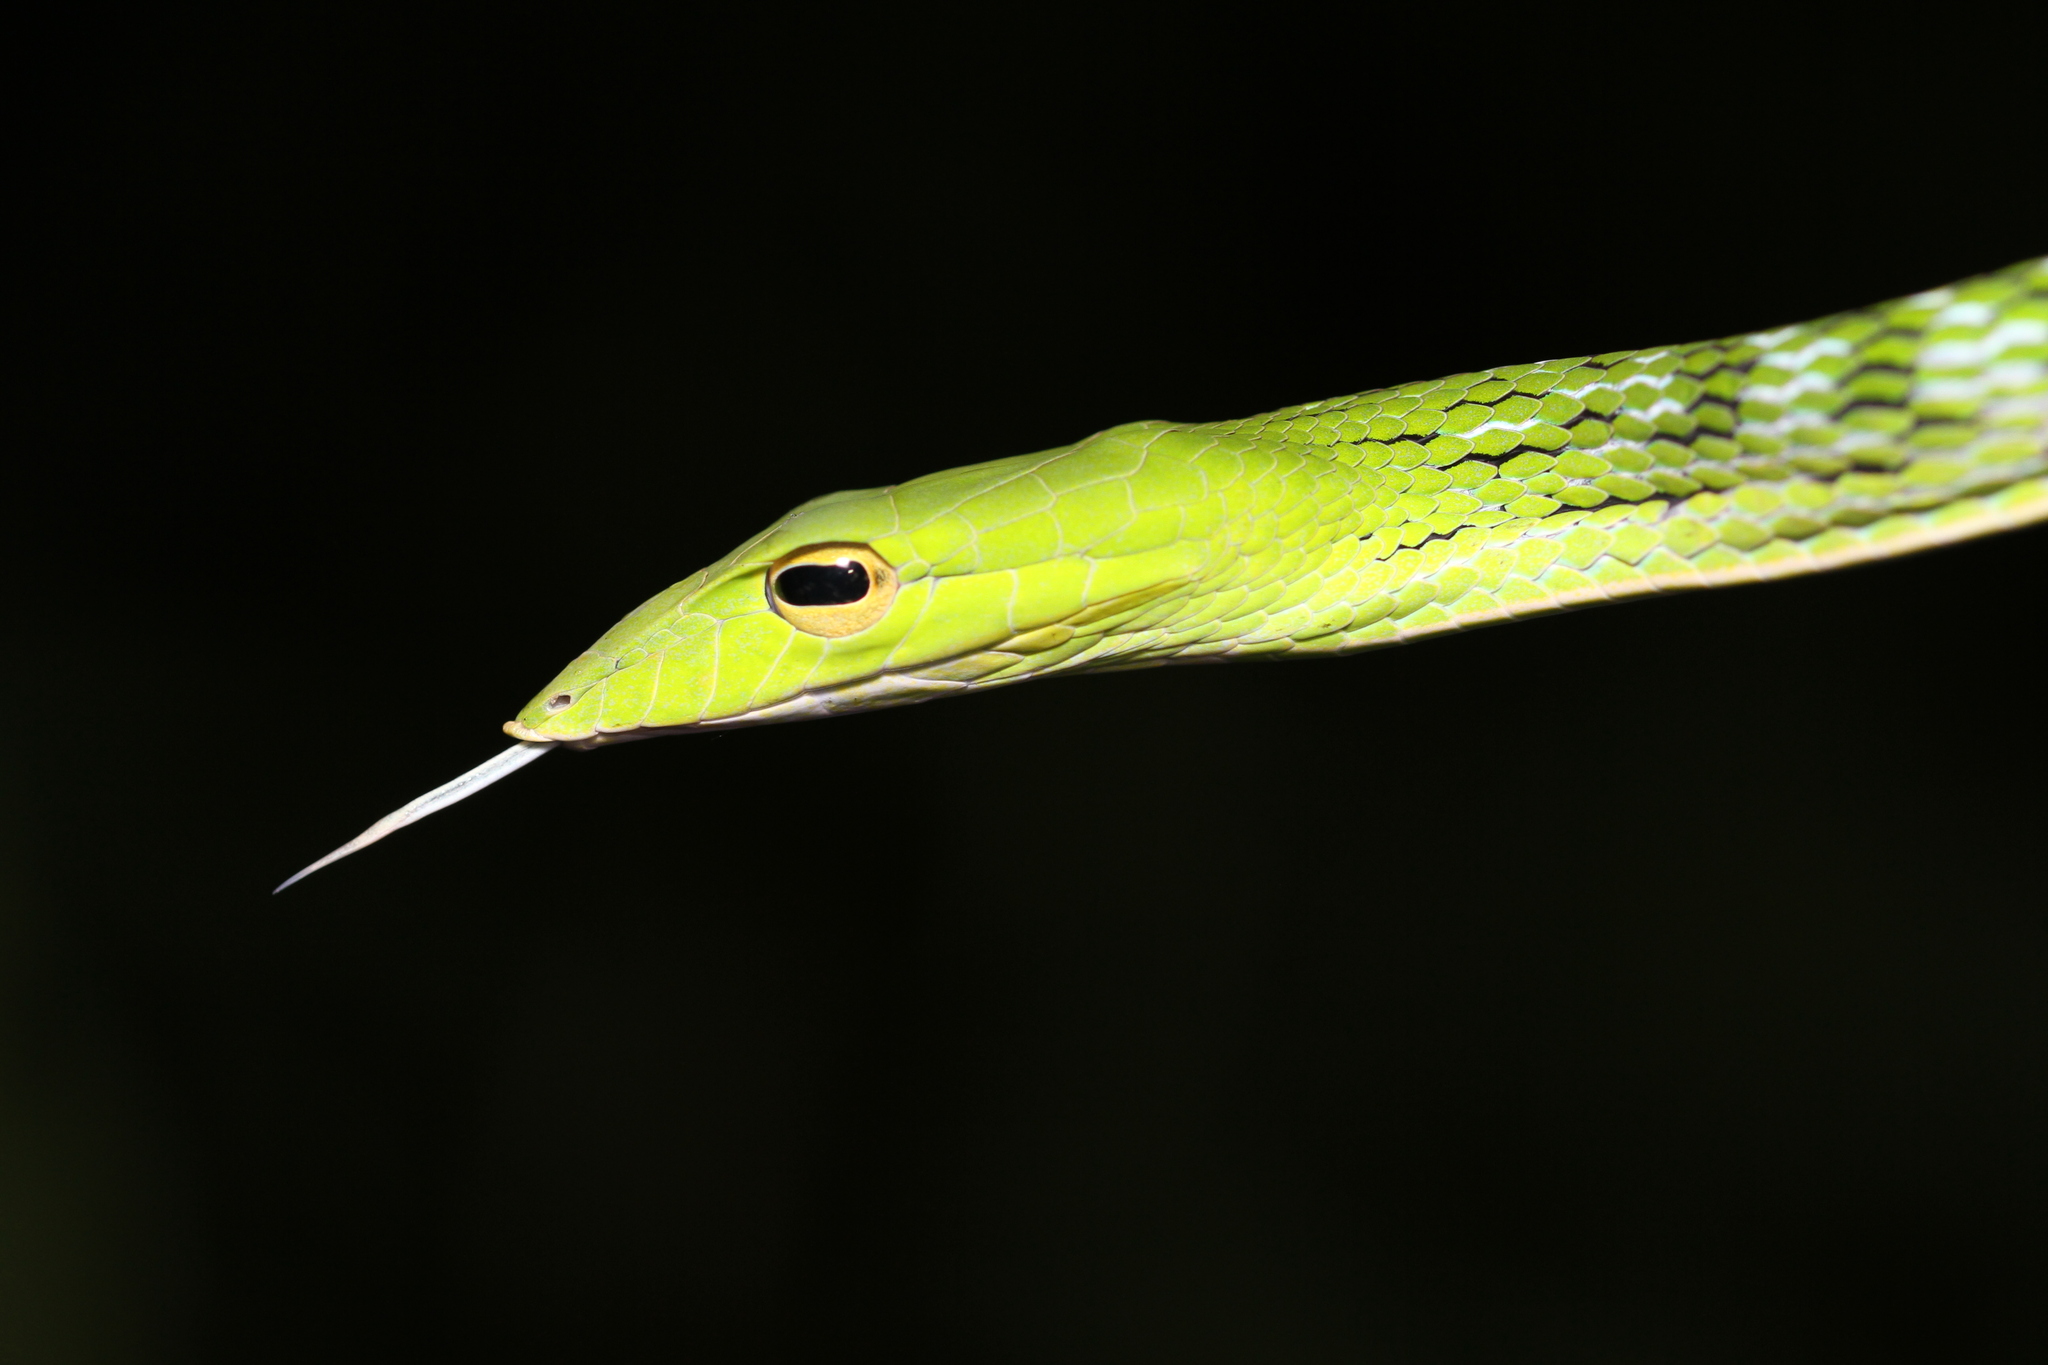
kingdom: Animalia
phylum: Chordata
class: Squamata
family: Colubridae
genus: Ahaetulla
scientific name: Ahaetulla prasina
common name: Oriental whip snake
